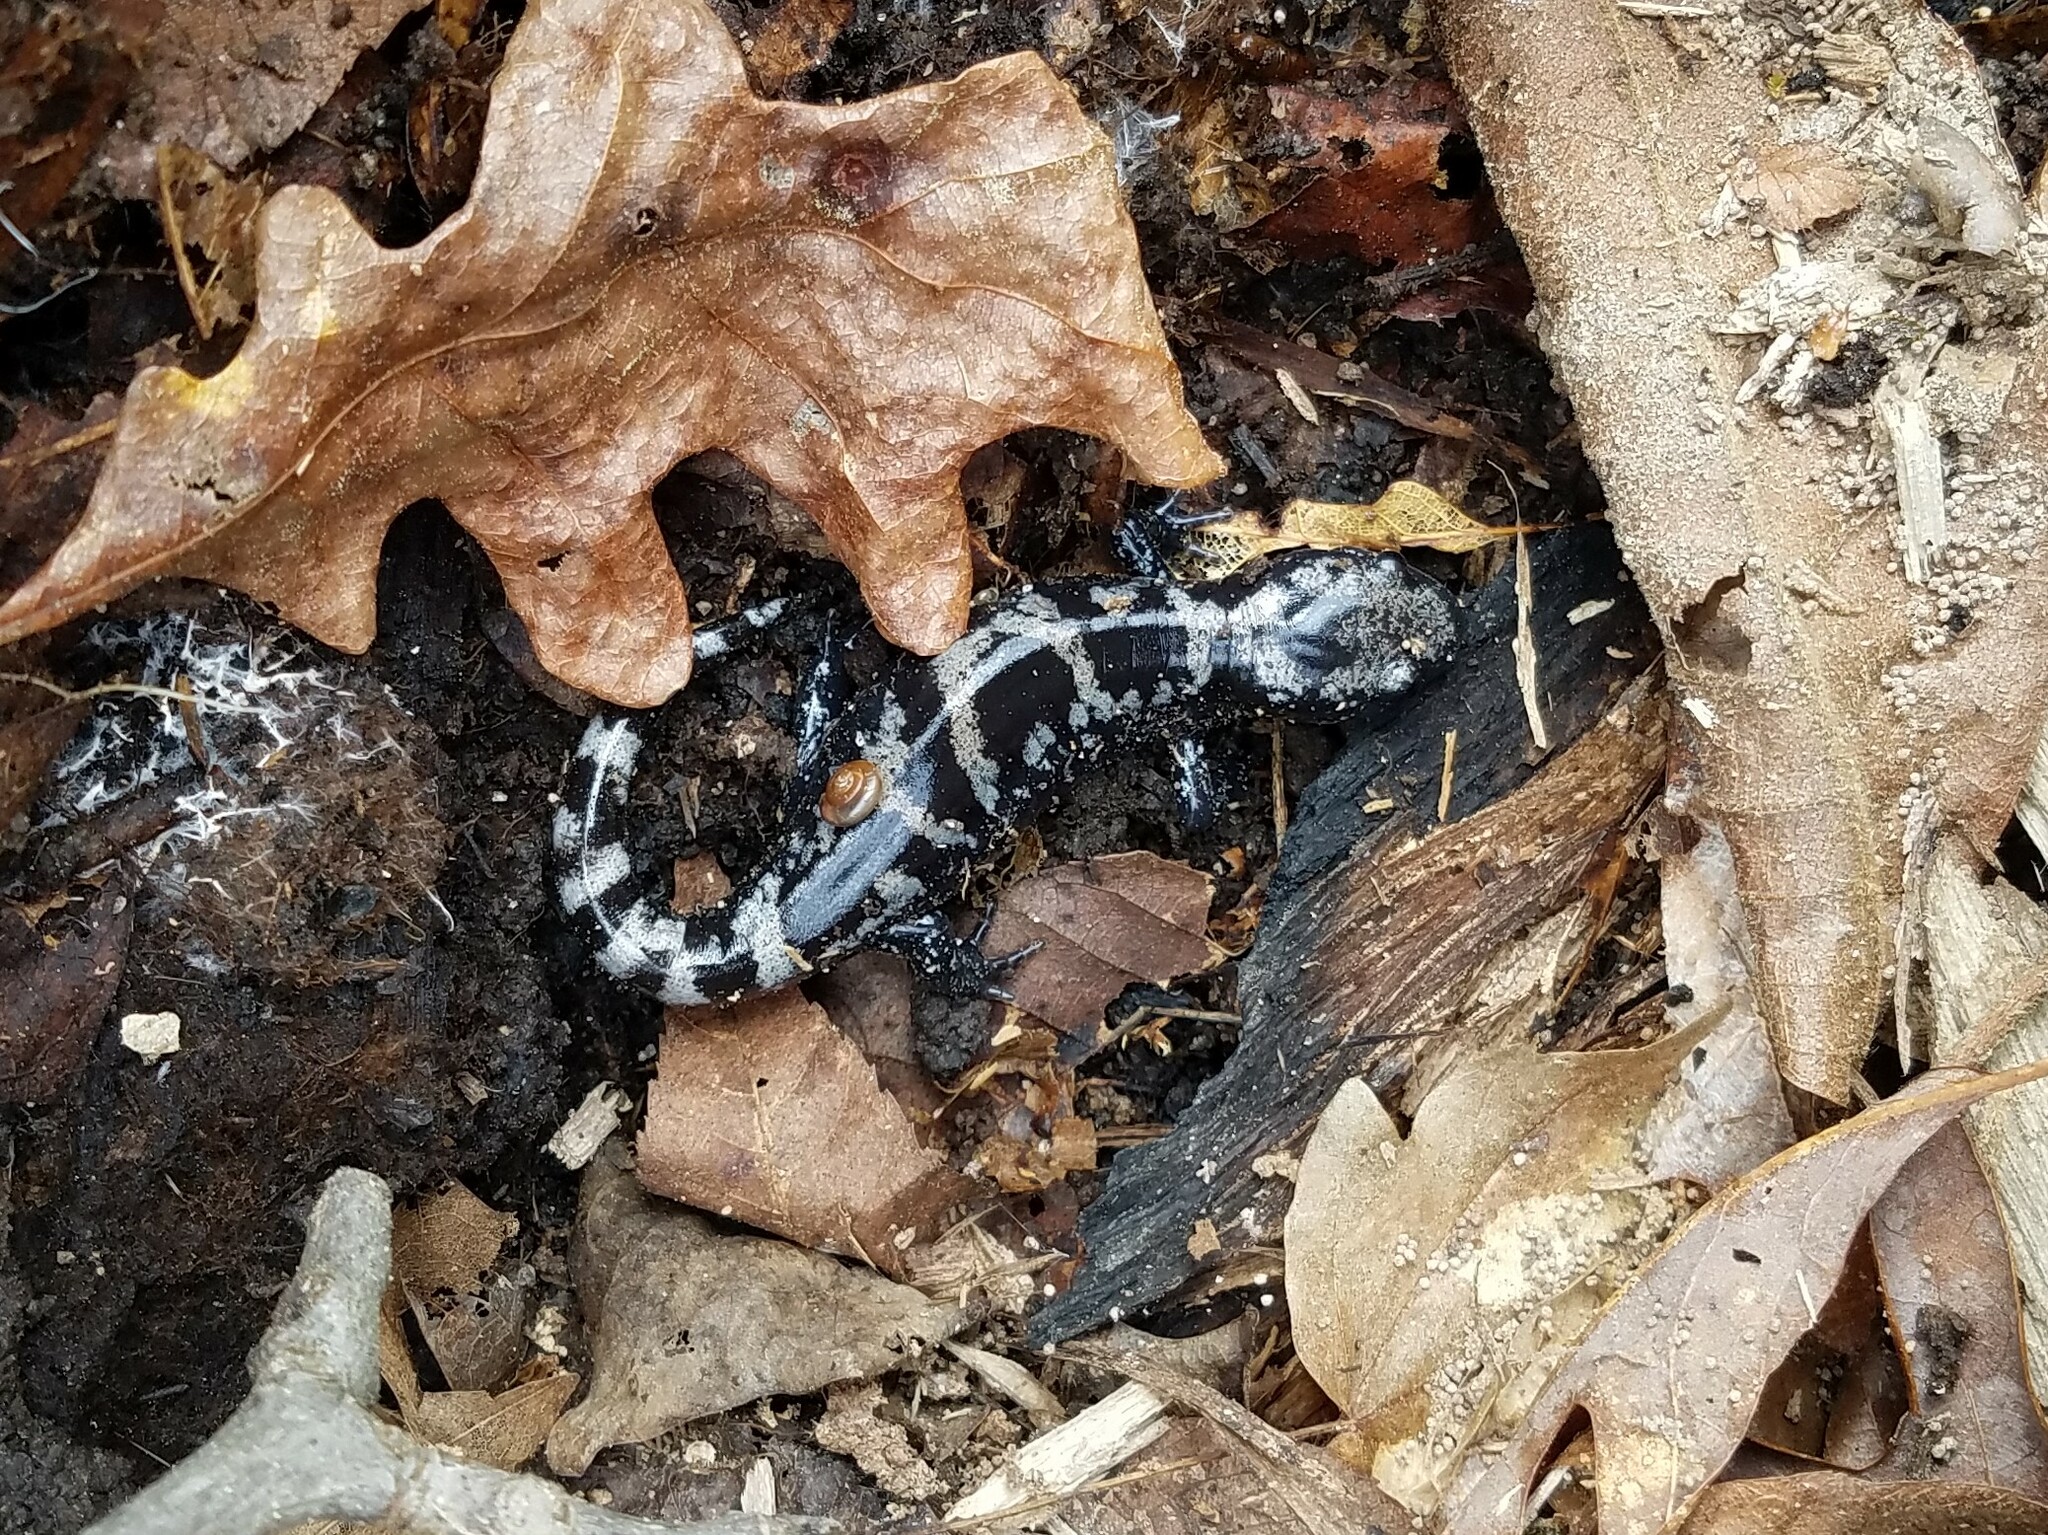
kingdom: Animalia
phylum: Chordata
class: Amphibia
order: Caudata
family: Ambystomatidae
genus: Ambystoma
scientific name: Ambystoma opacum
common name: Marbled salamander
